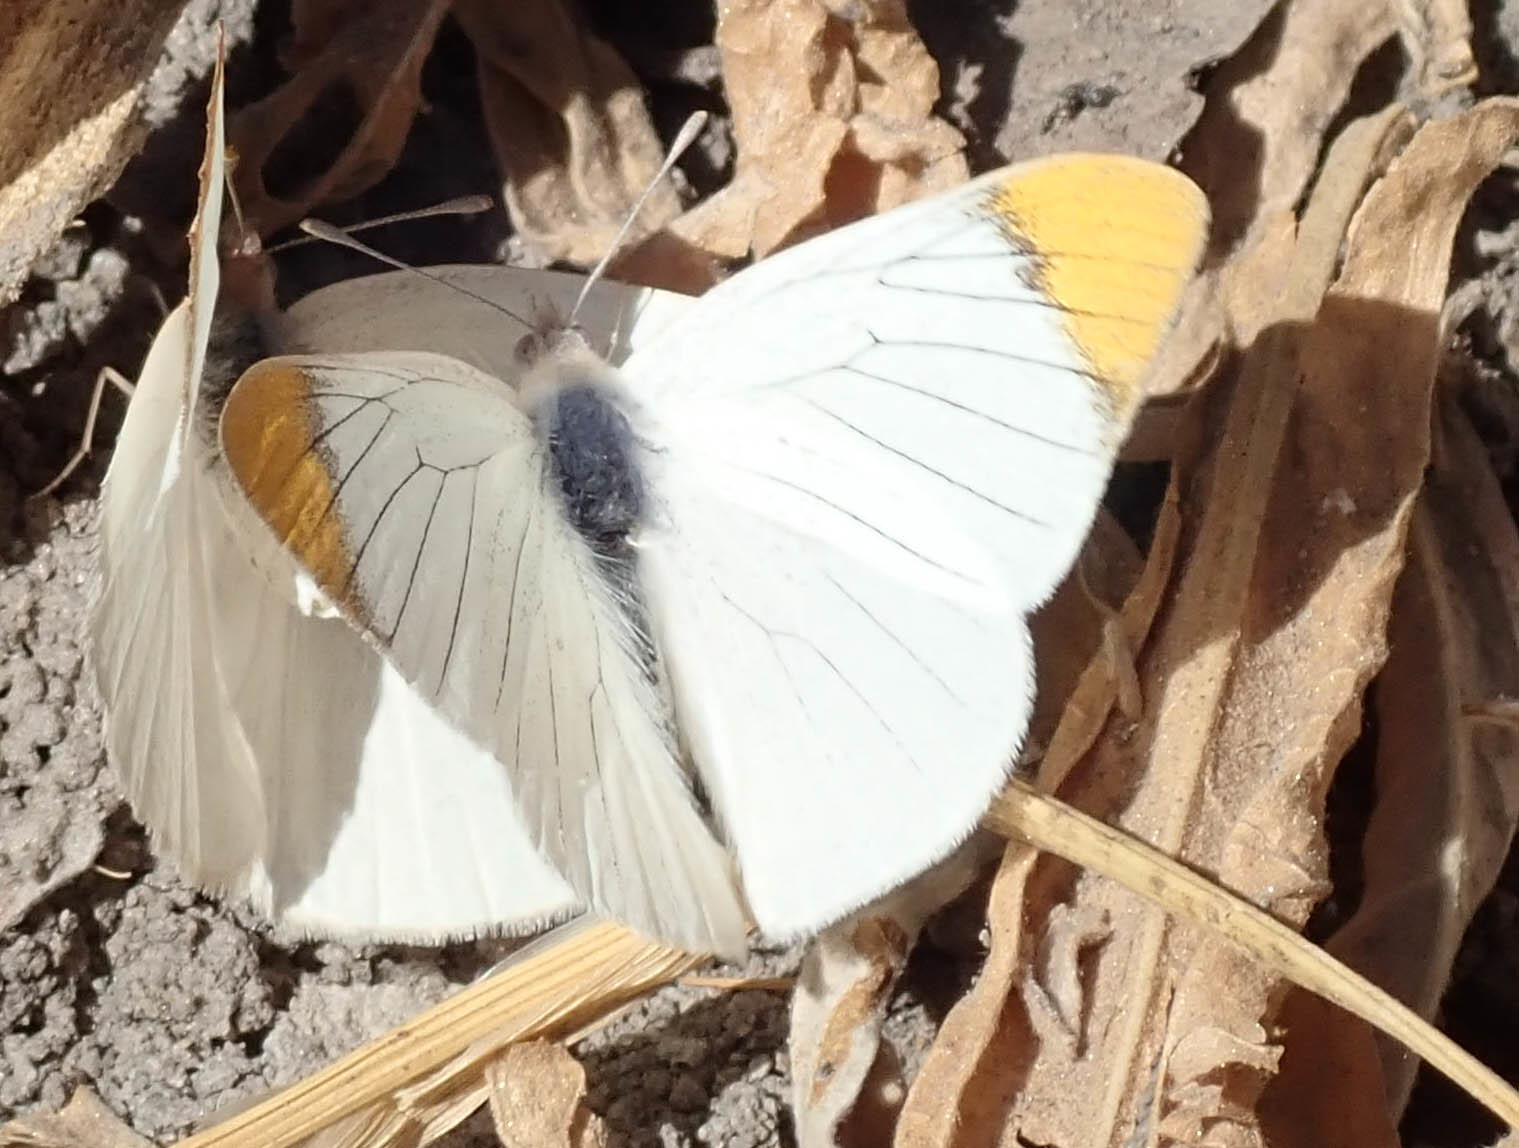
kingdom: Animalia
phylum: Arthropoda
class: Insecta
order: Lepidoptera
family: Pieridae
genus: Teracolus
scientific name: Teracolus agoye
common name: Speckled sulphur tip
